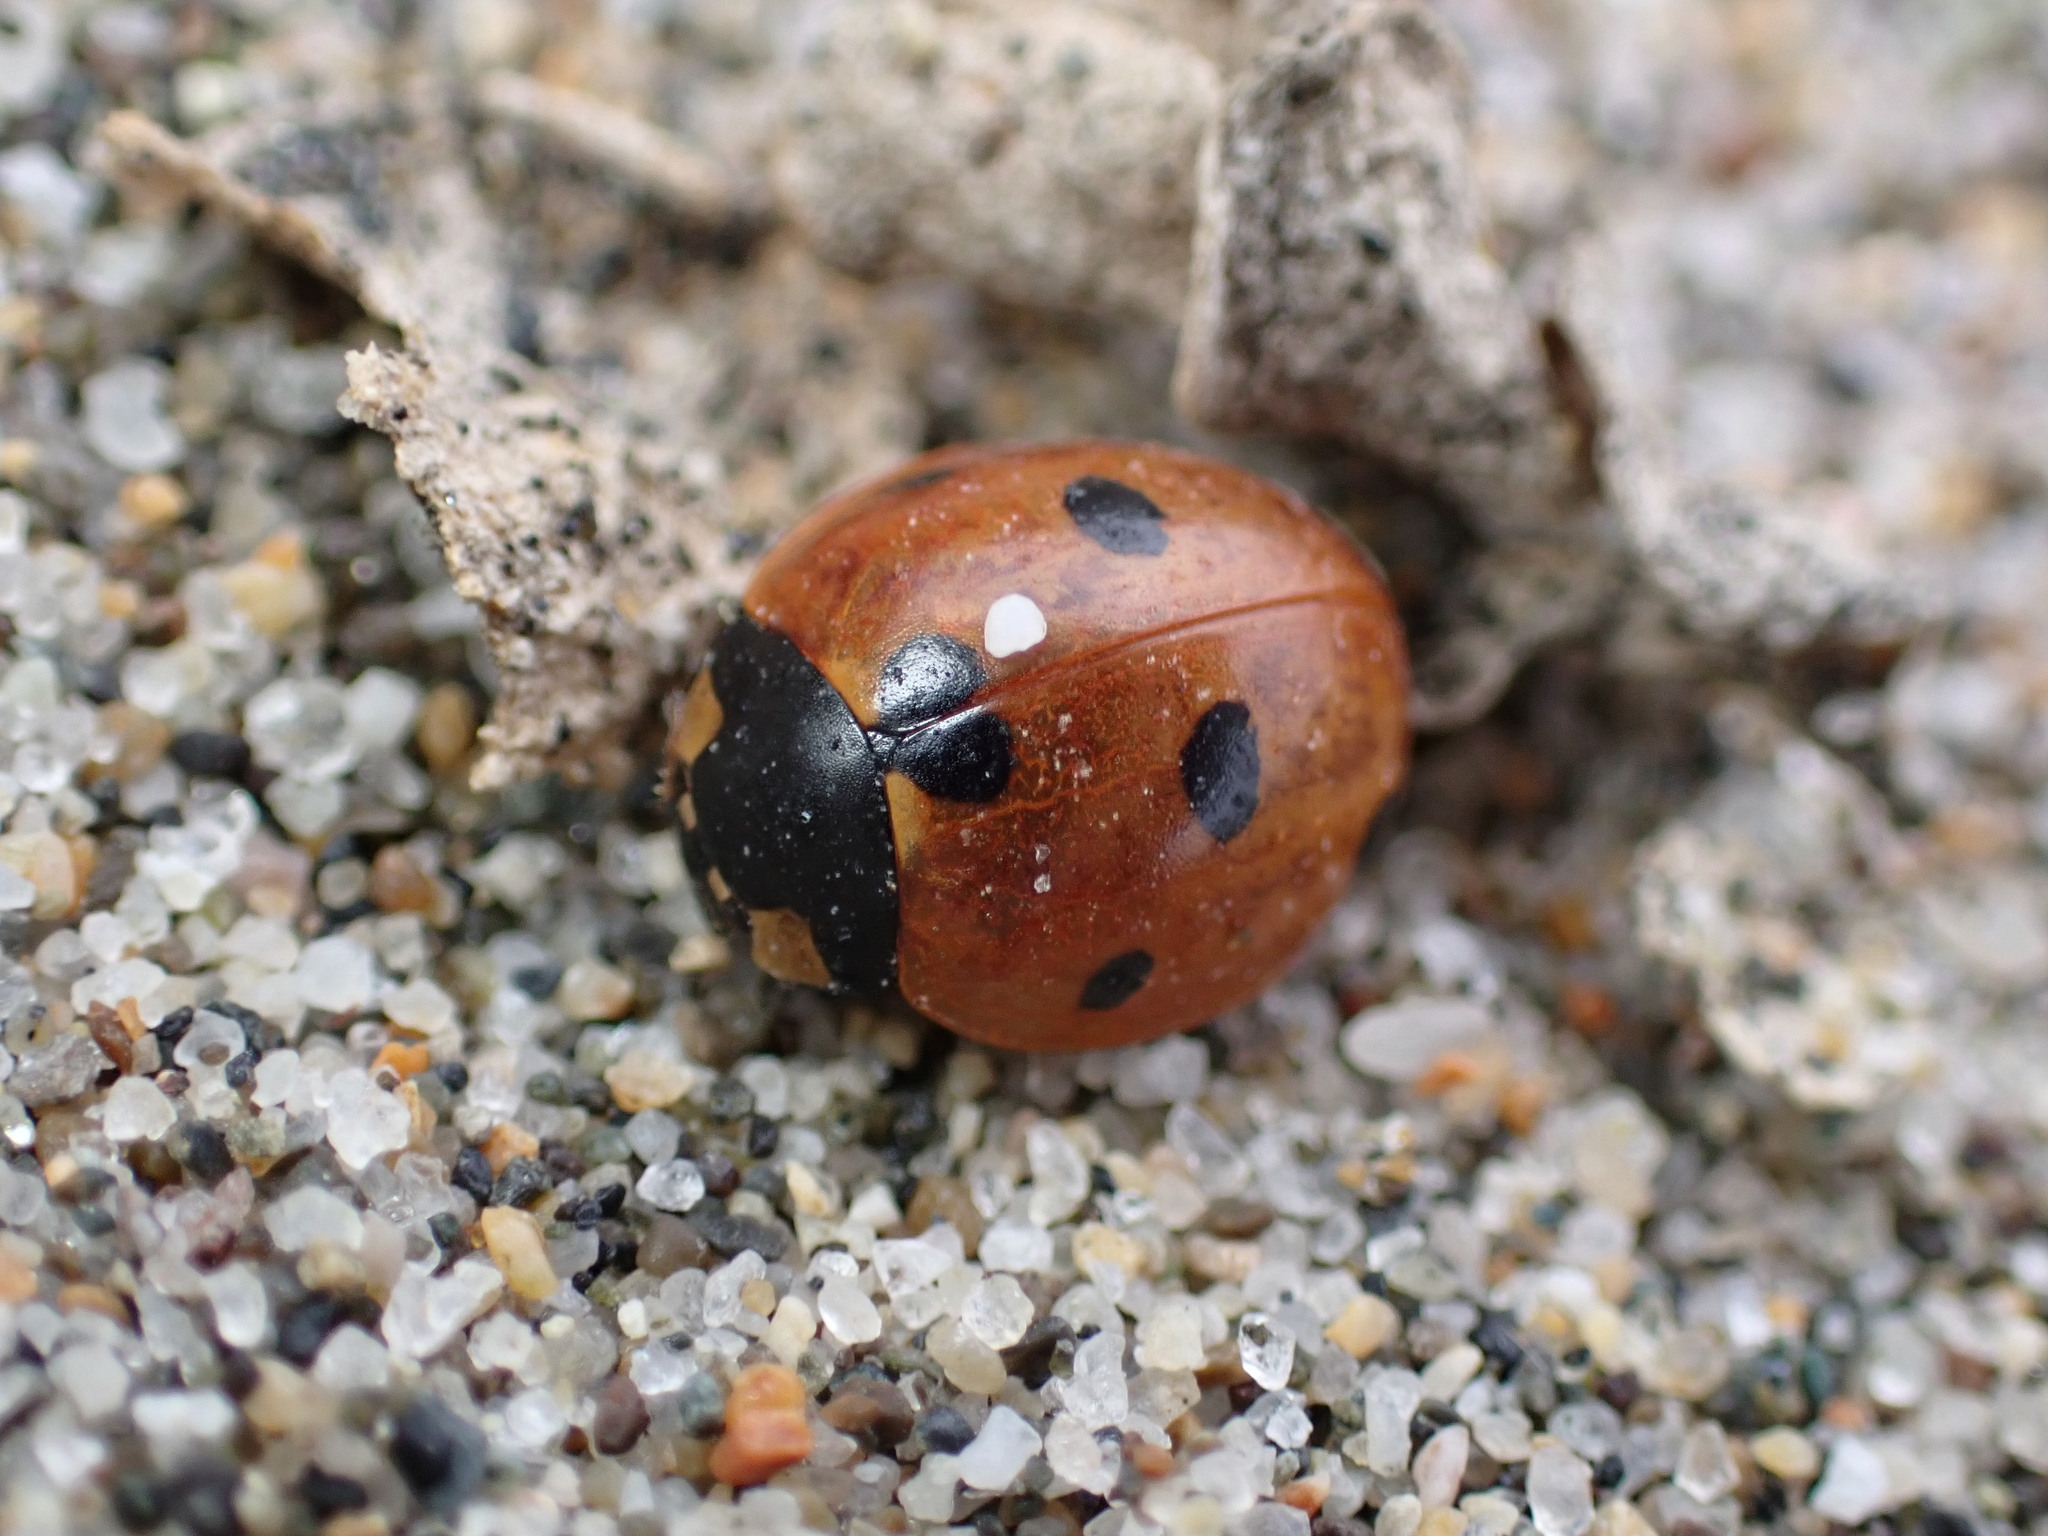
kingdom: Animalia
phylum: Arthropoda
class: Insecta
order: Coleoptera
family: Coccinellidae
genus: Coccinella
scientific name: Coccinella septempunctata
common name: Sevenspotted lady beetle
